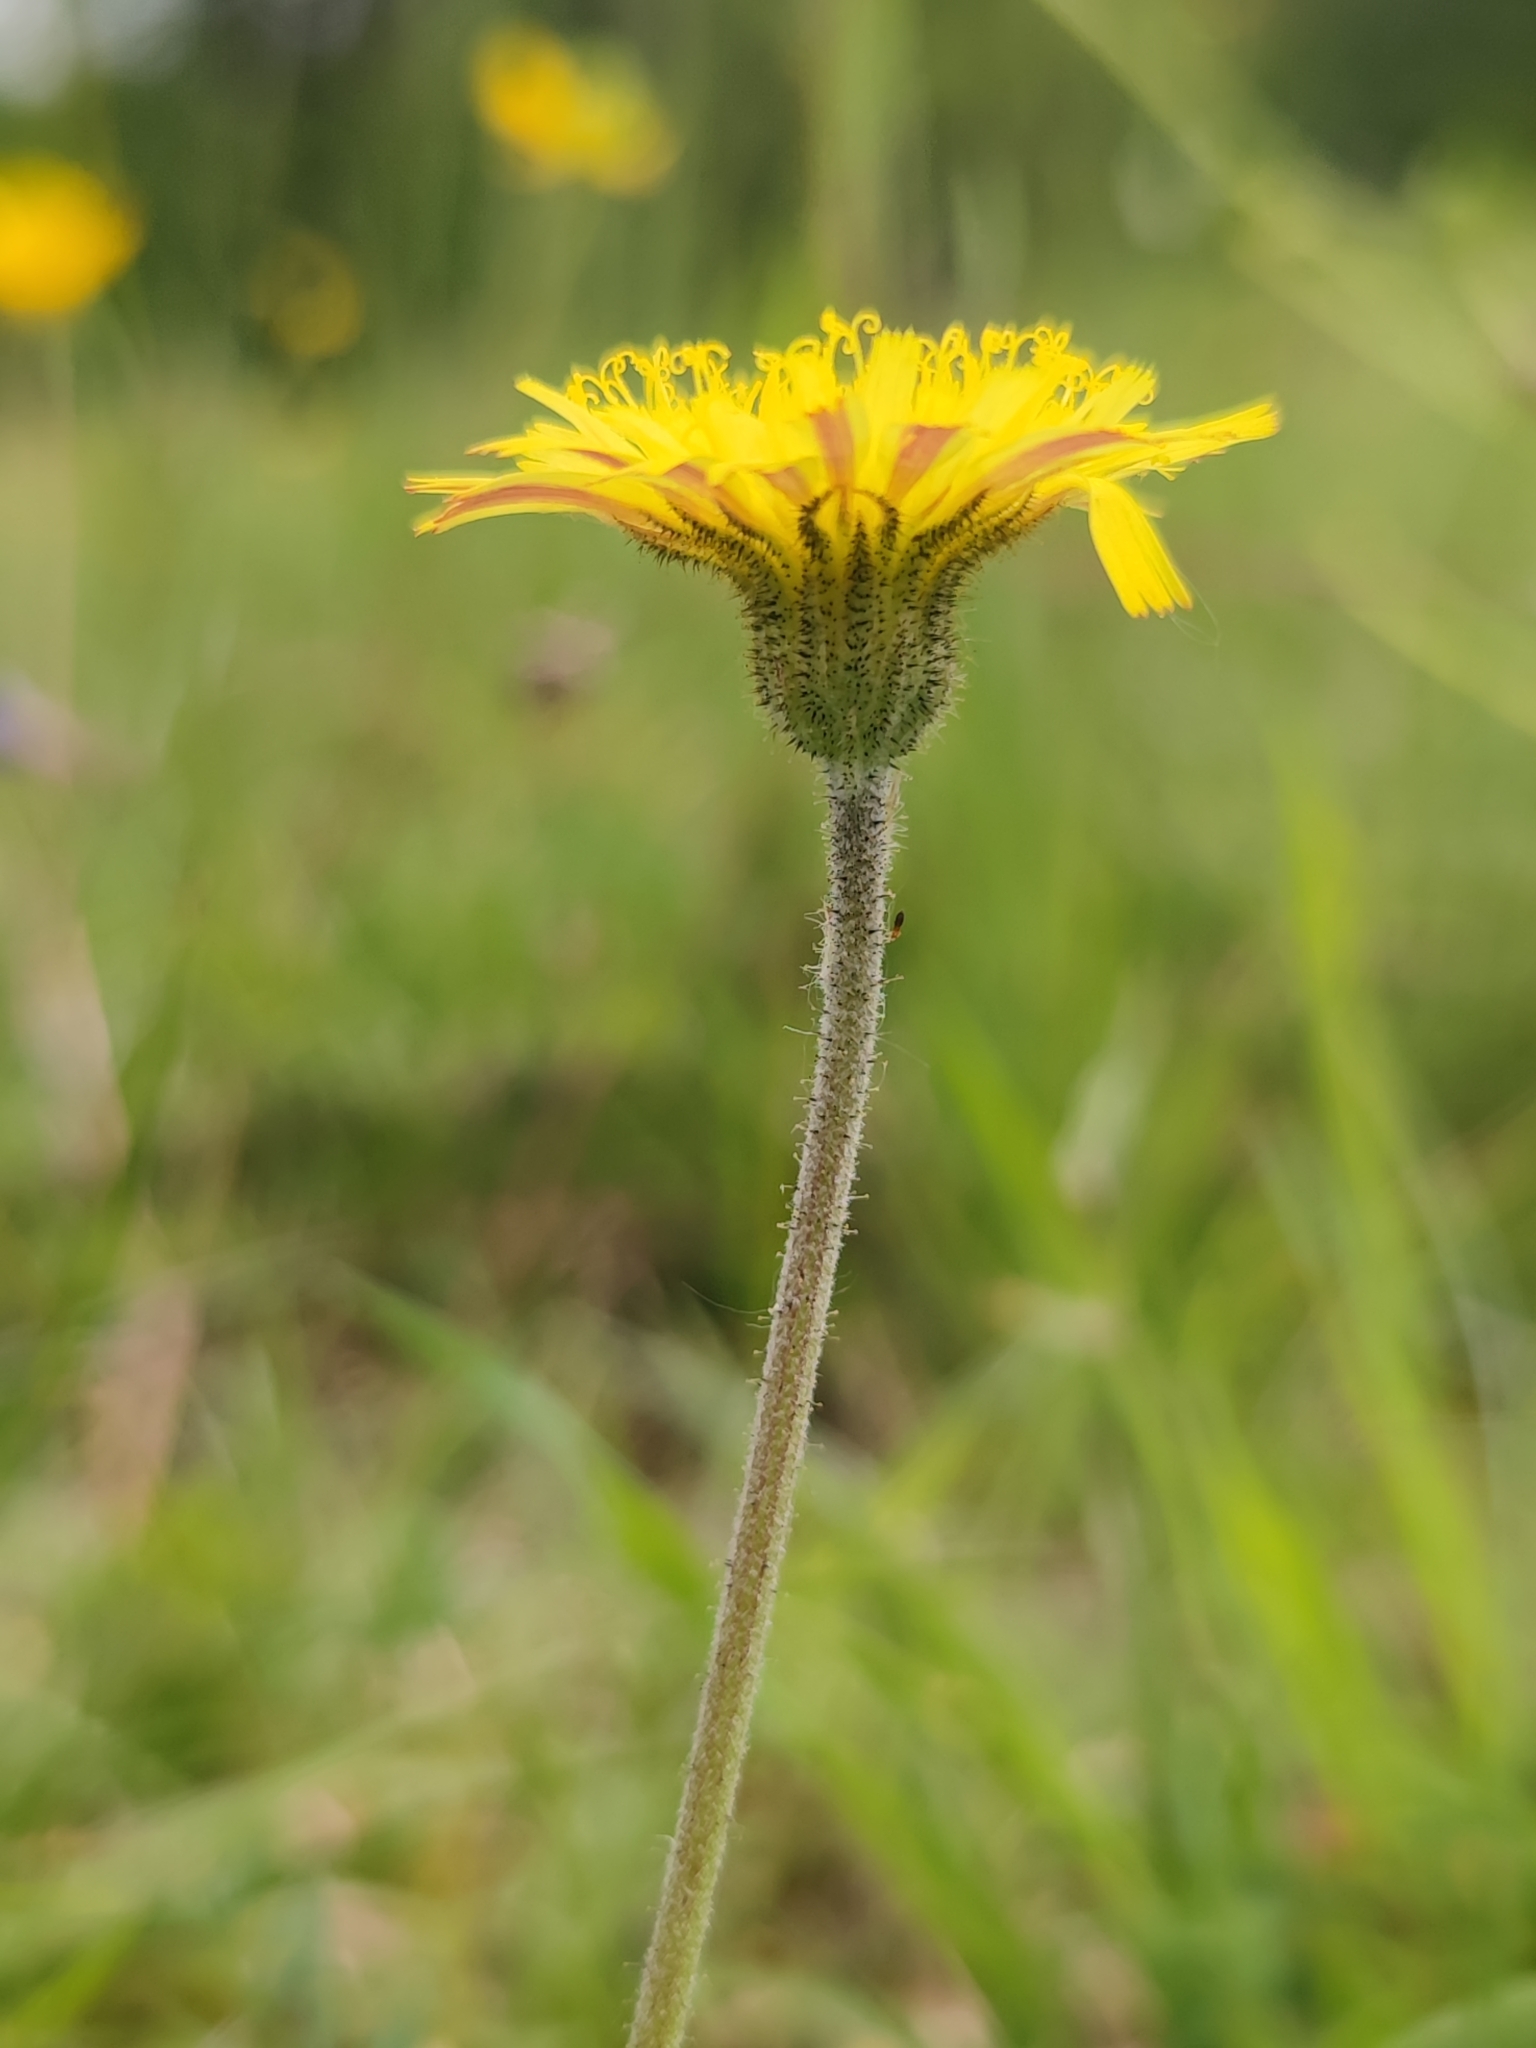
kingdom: Plantae
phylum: Tracheophyta
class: Magnoliopsida
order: Asterales
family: Asteraceae
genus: Pilosella
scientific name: Pilosella officinarum
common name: Mouse-ear hawkweed
